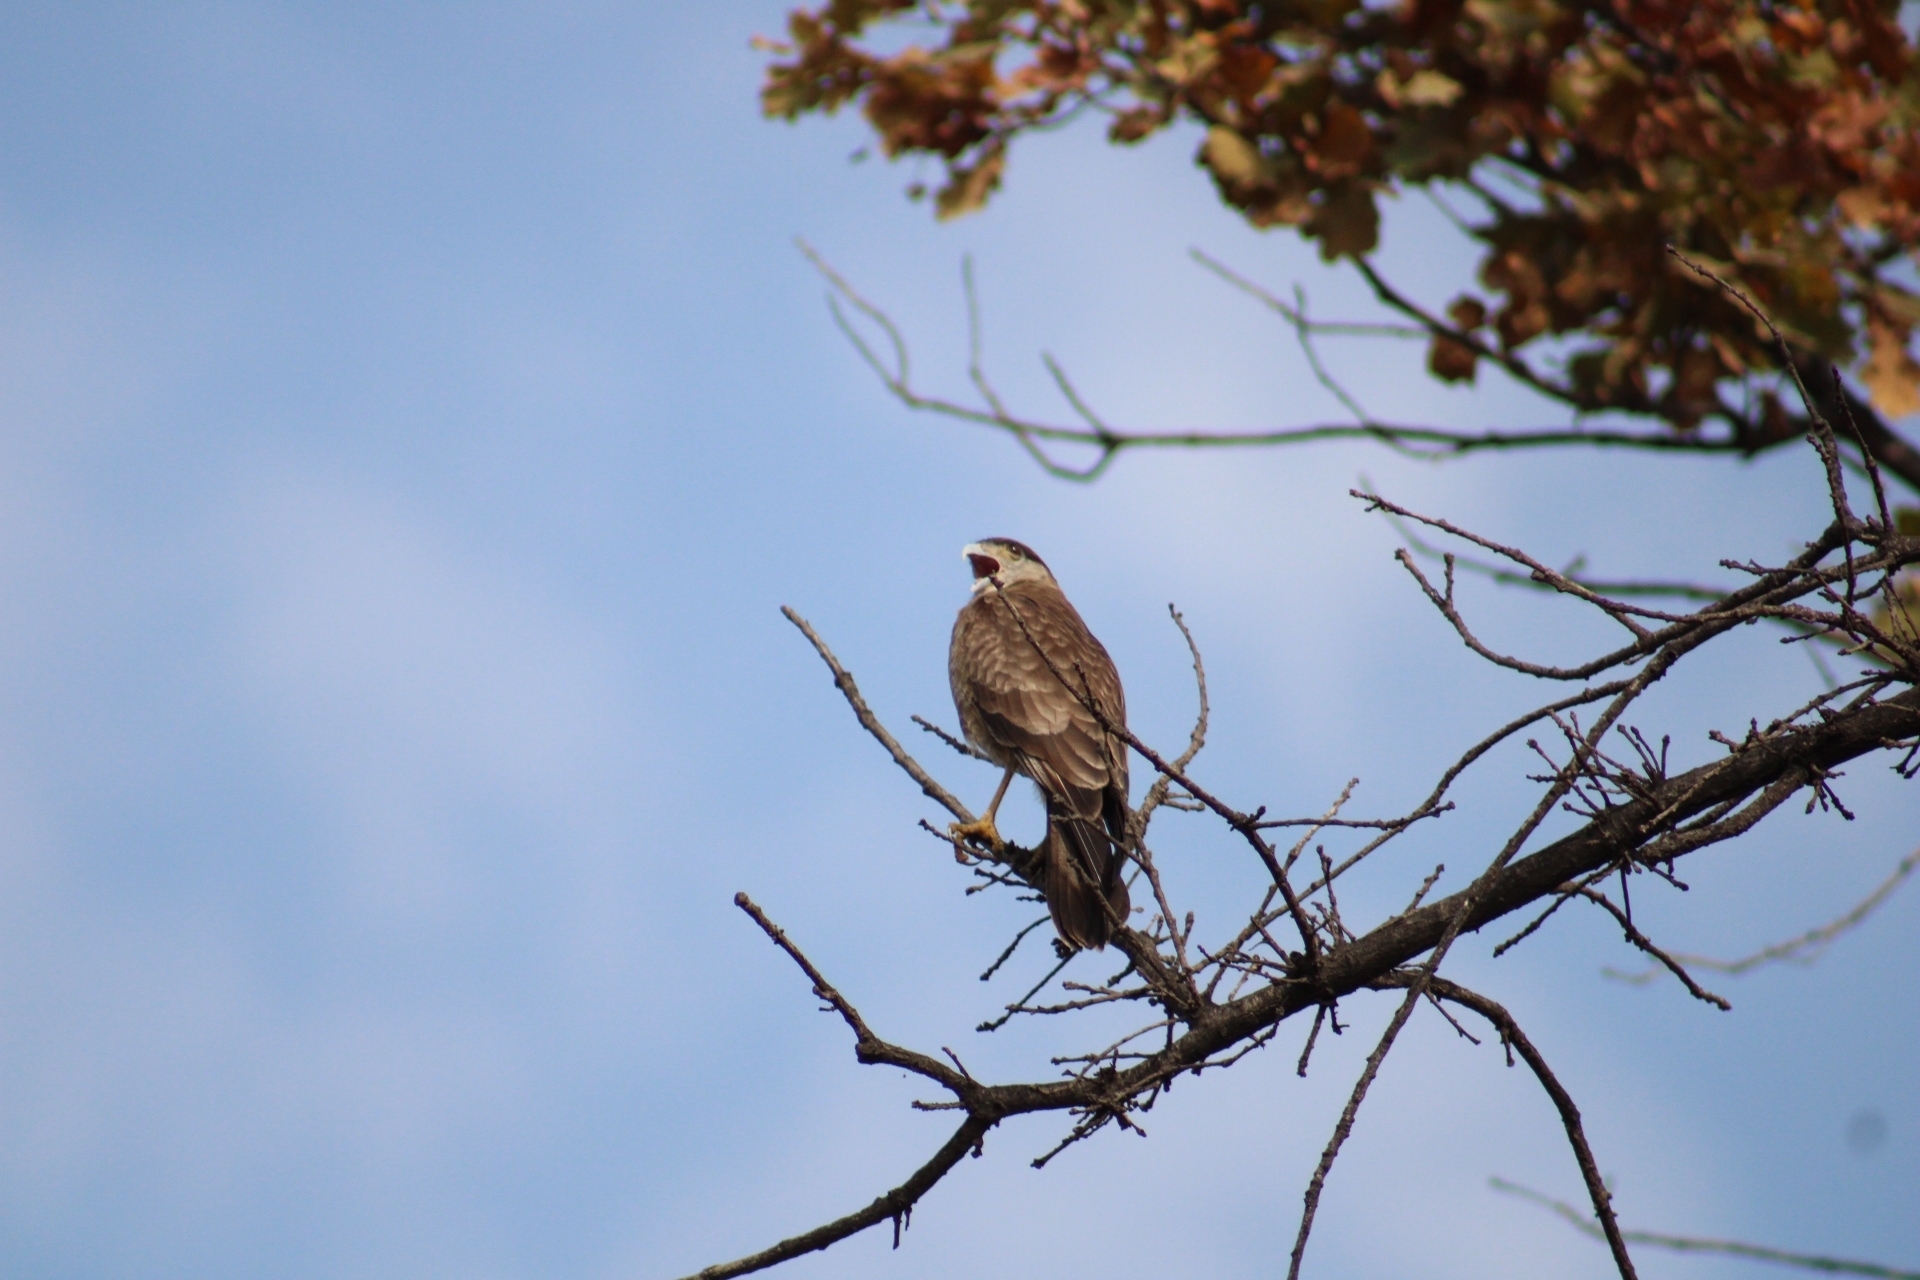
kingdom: Animalia
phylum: Chordata
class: Aves
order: Falconiformes
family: Falconidae
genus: Daptrius
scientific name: Daptrius
